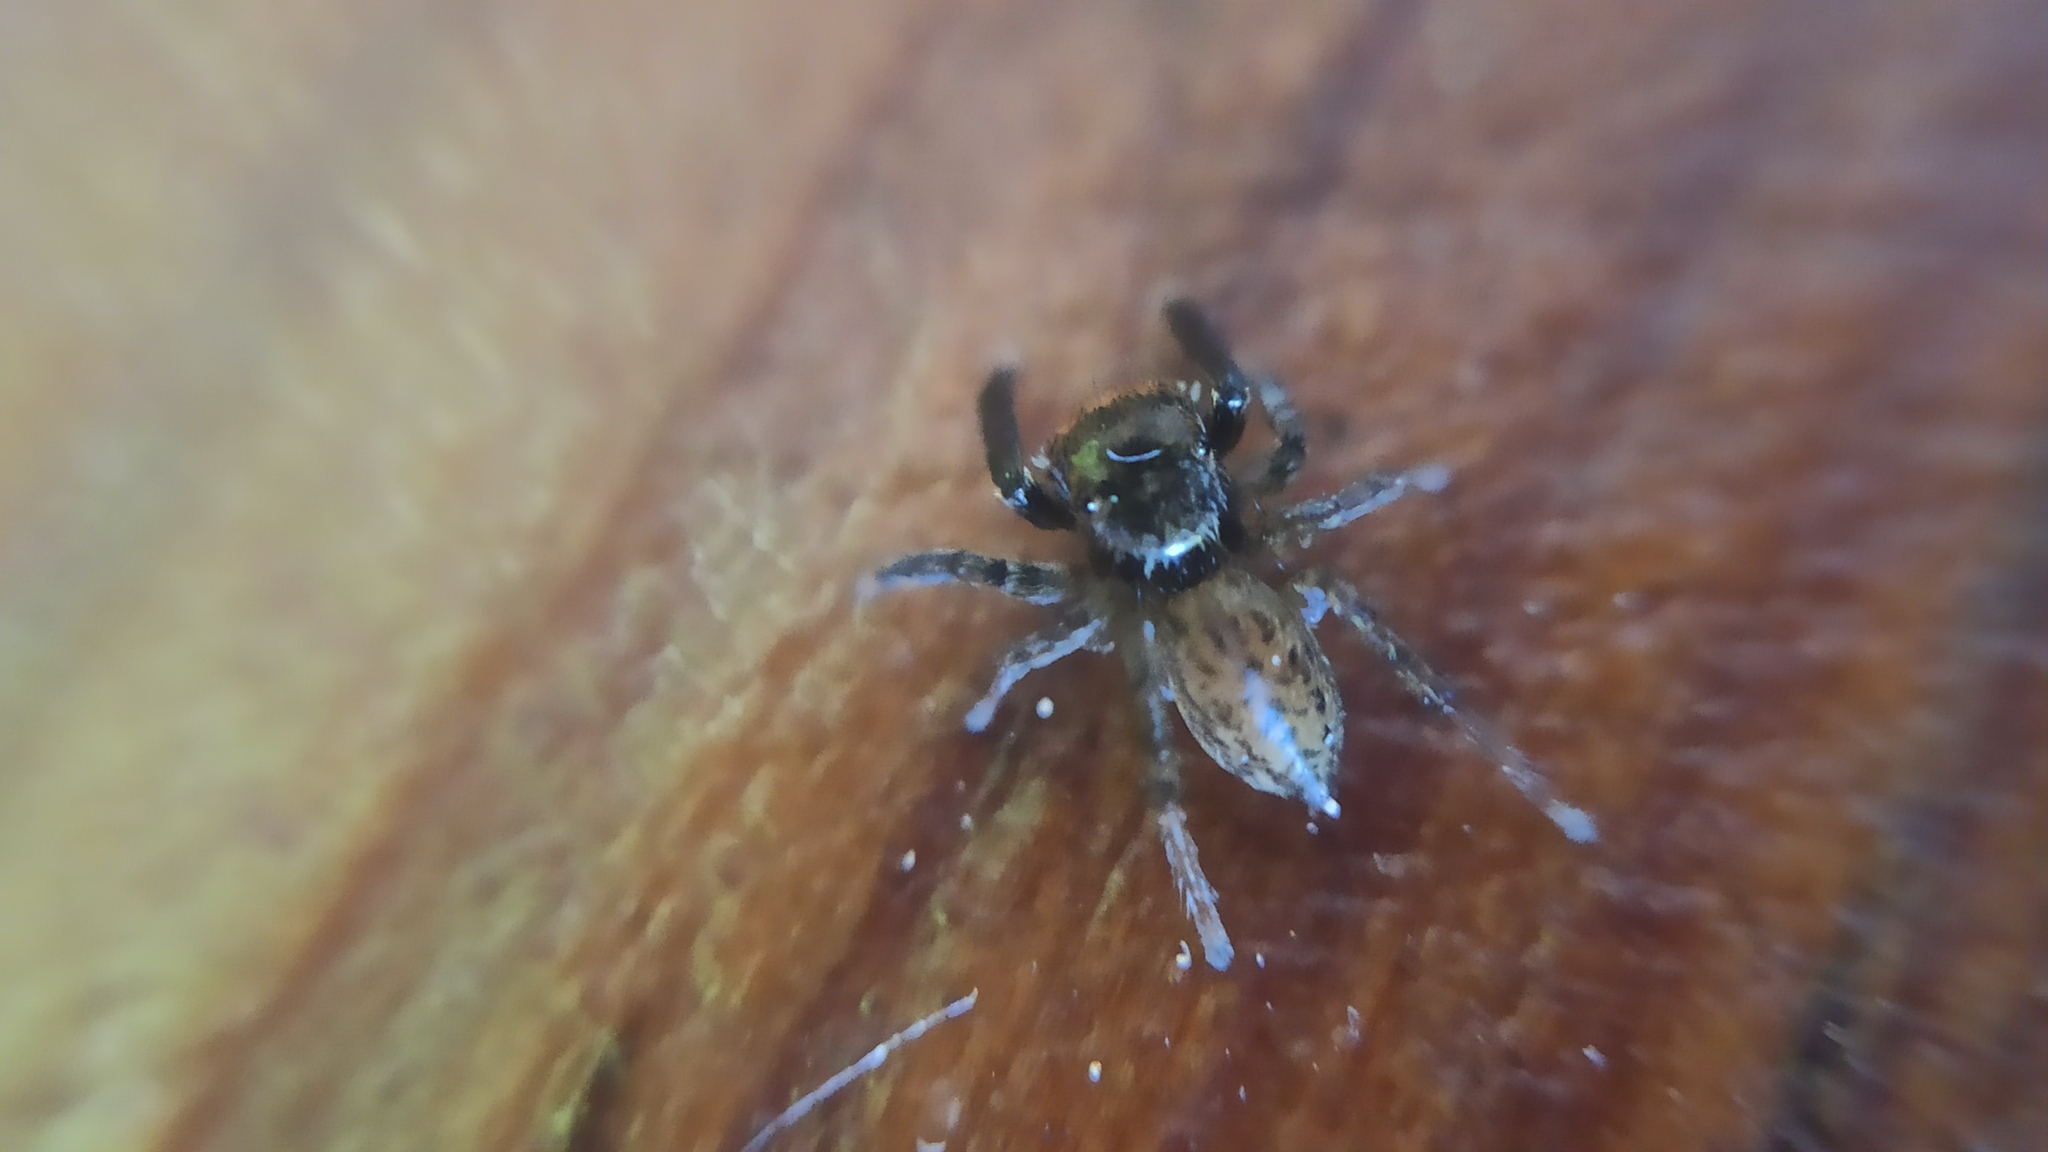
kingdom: Animalia
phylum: Arthropoda
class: Arachnida
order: Araneae
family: Salticidae
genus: Euophrys
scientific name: Euophrys frontalis
